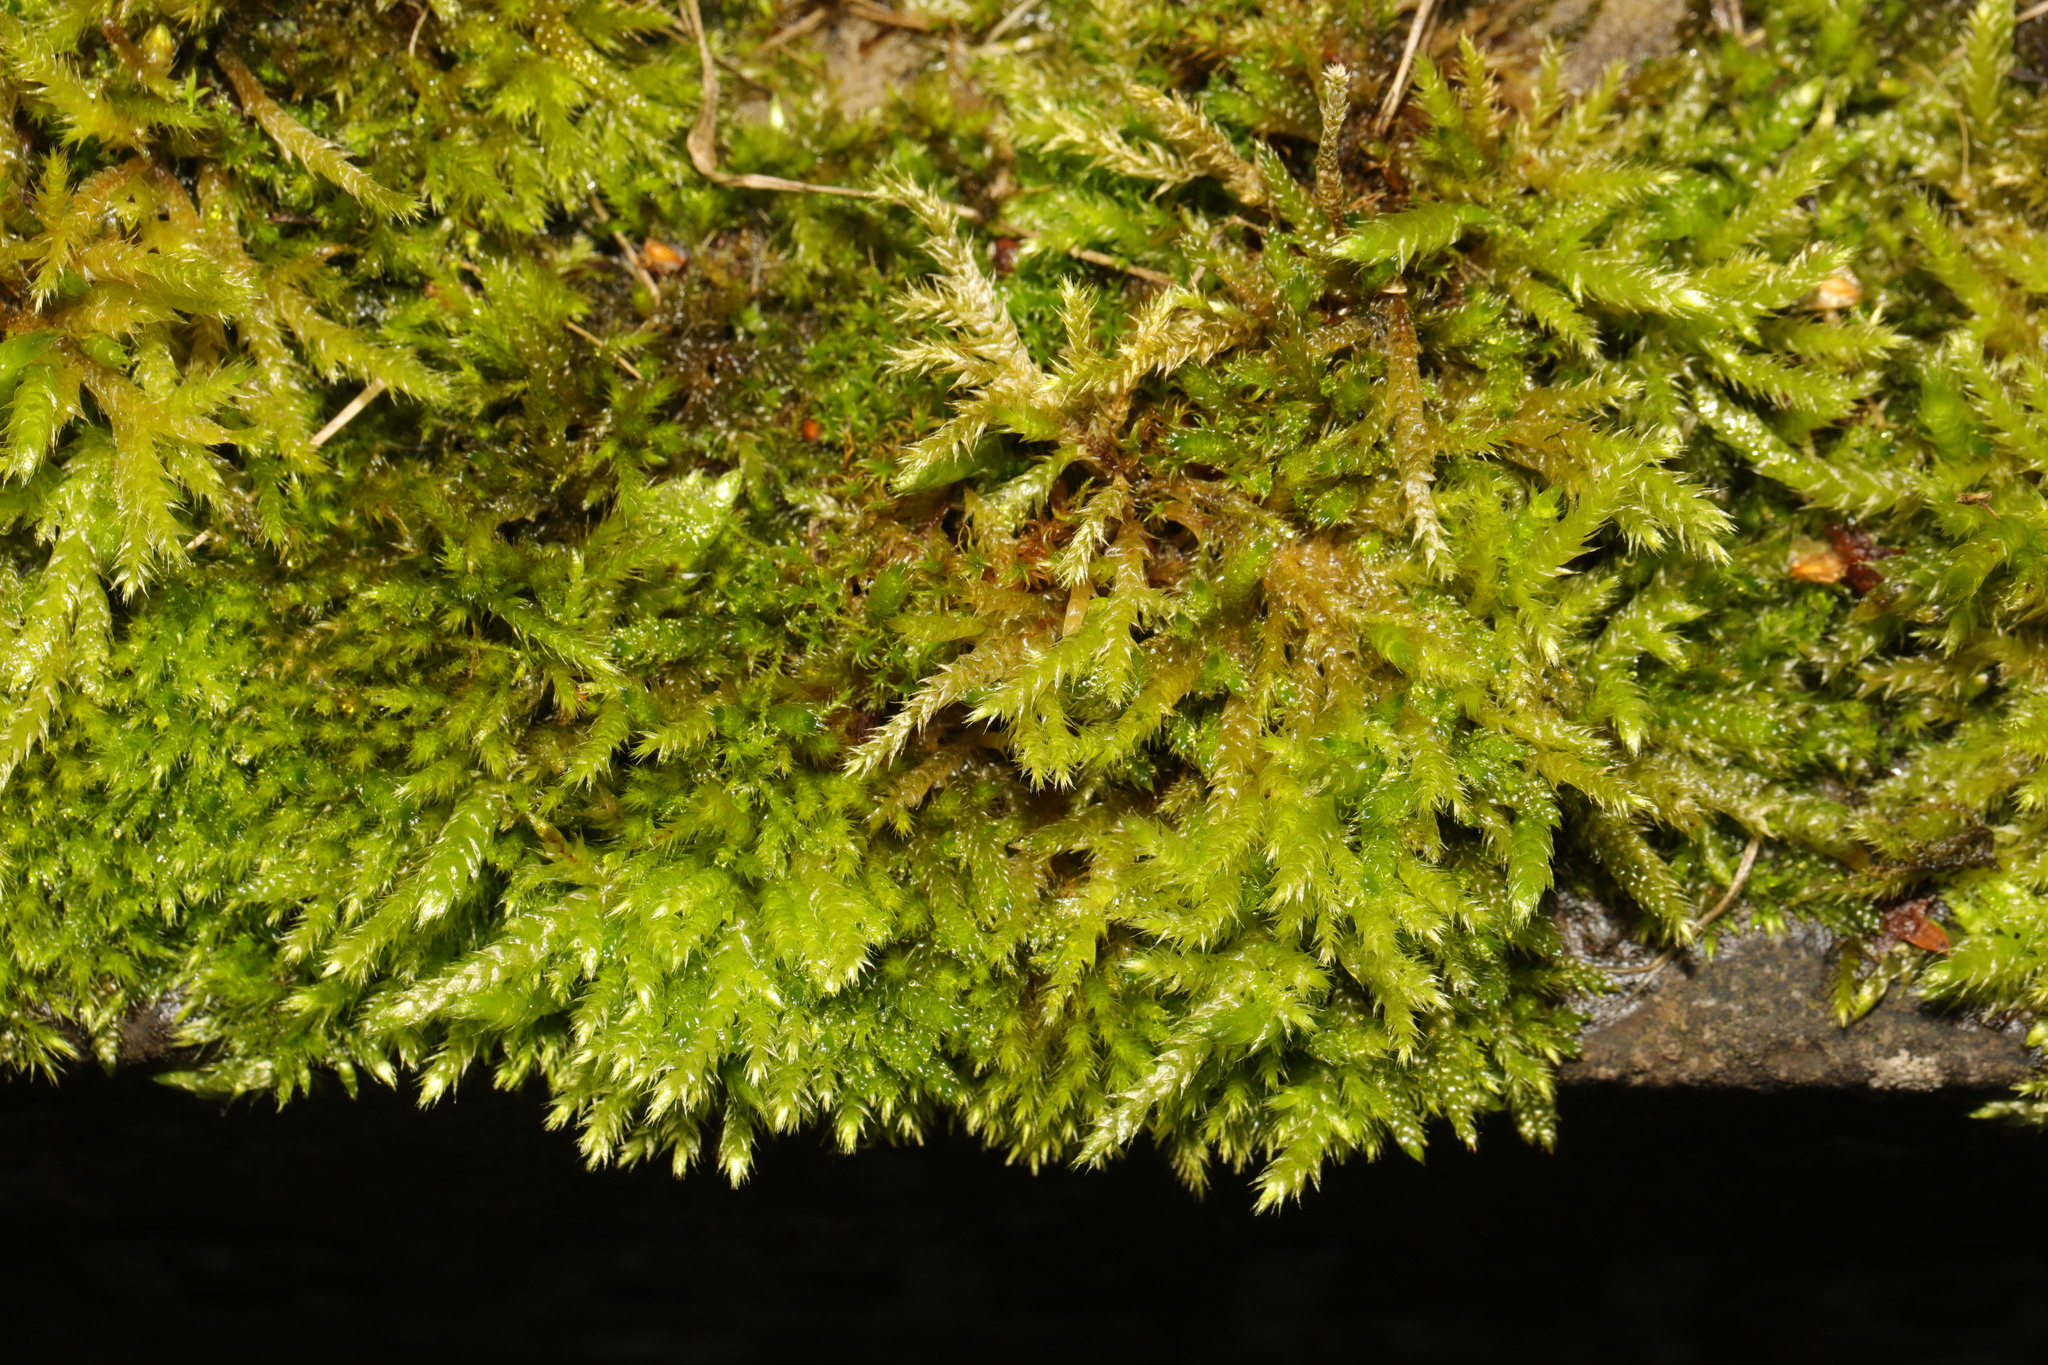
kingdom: Plantae
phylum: Bryophyta
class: Bryopsida
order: Hypnales
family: Hypnaceae
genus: Hypnum
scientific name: Hypnum cupressiforme
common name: Cypress-leaved plait-moss
